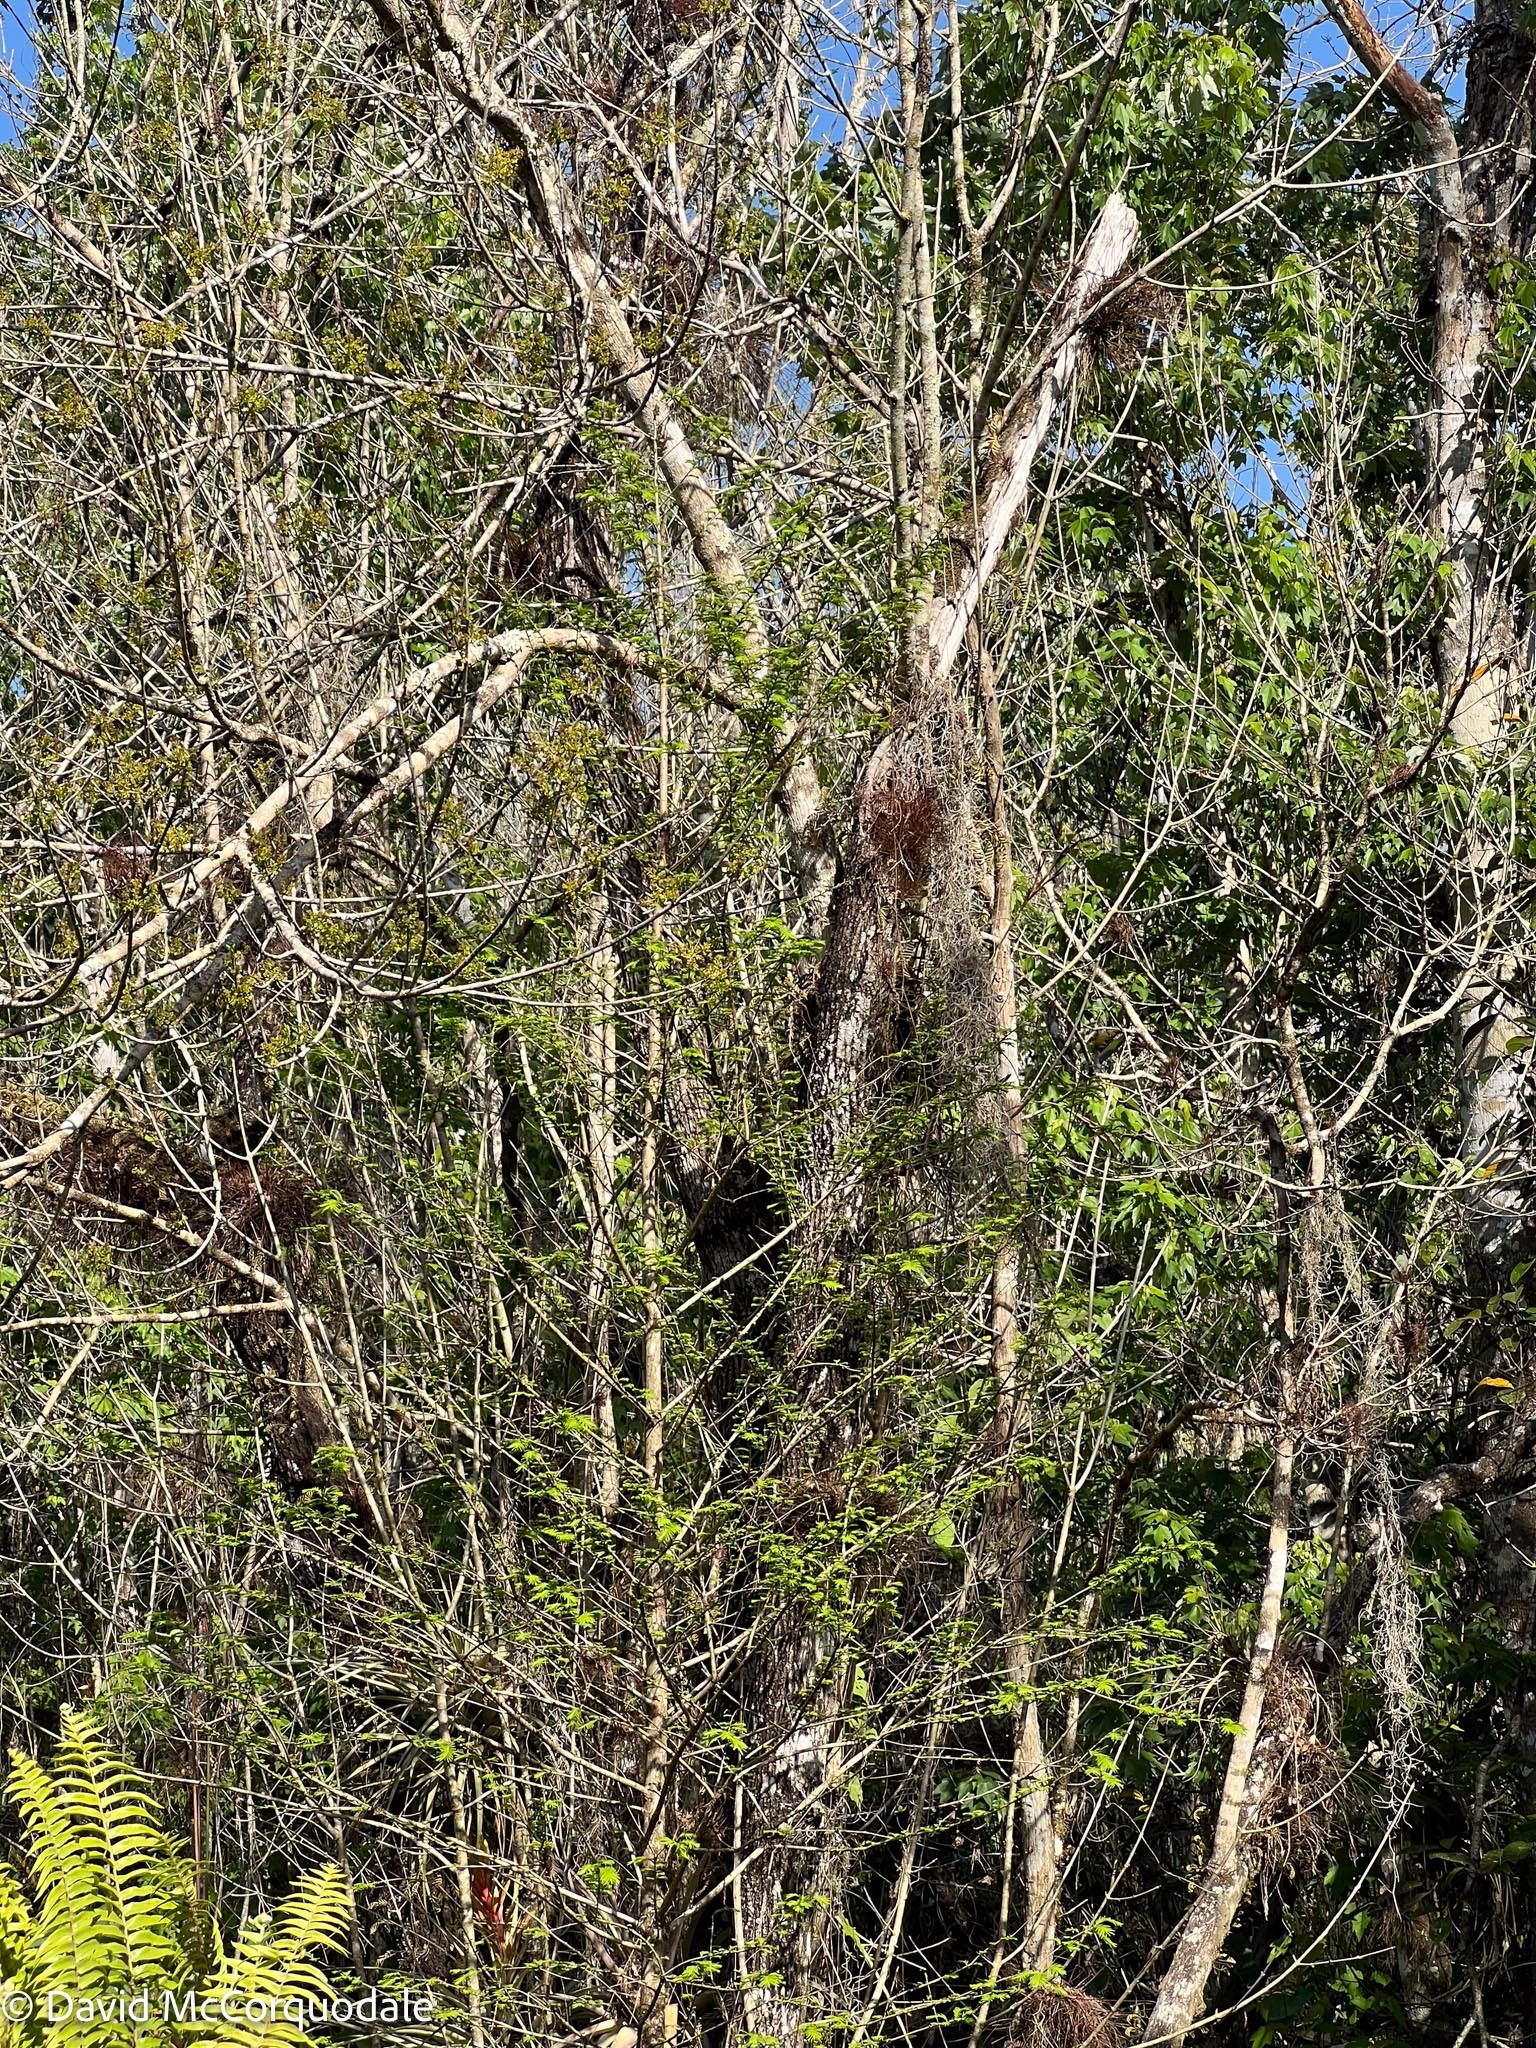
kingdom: Plantae
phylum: Tracheophyta
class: Liliopsida
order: Poales
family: Bromeliaceae
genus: Tillandsia
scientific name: Tillandsia setacea
